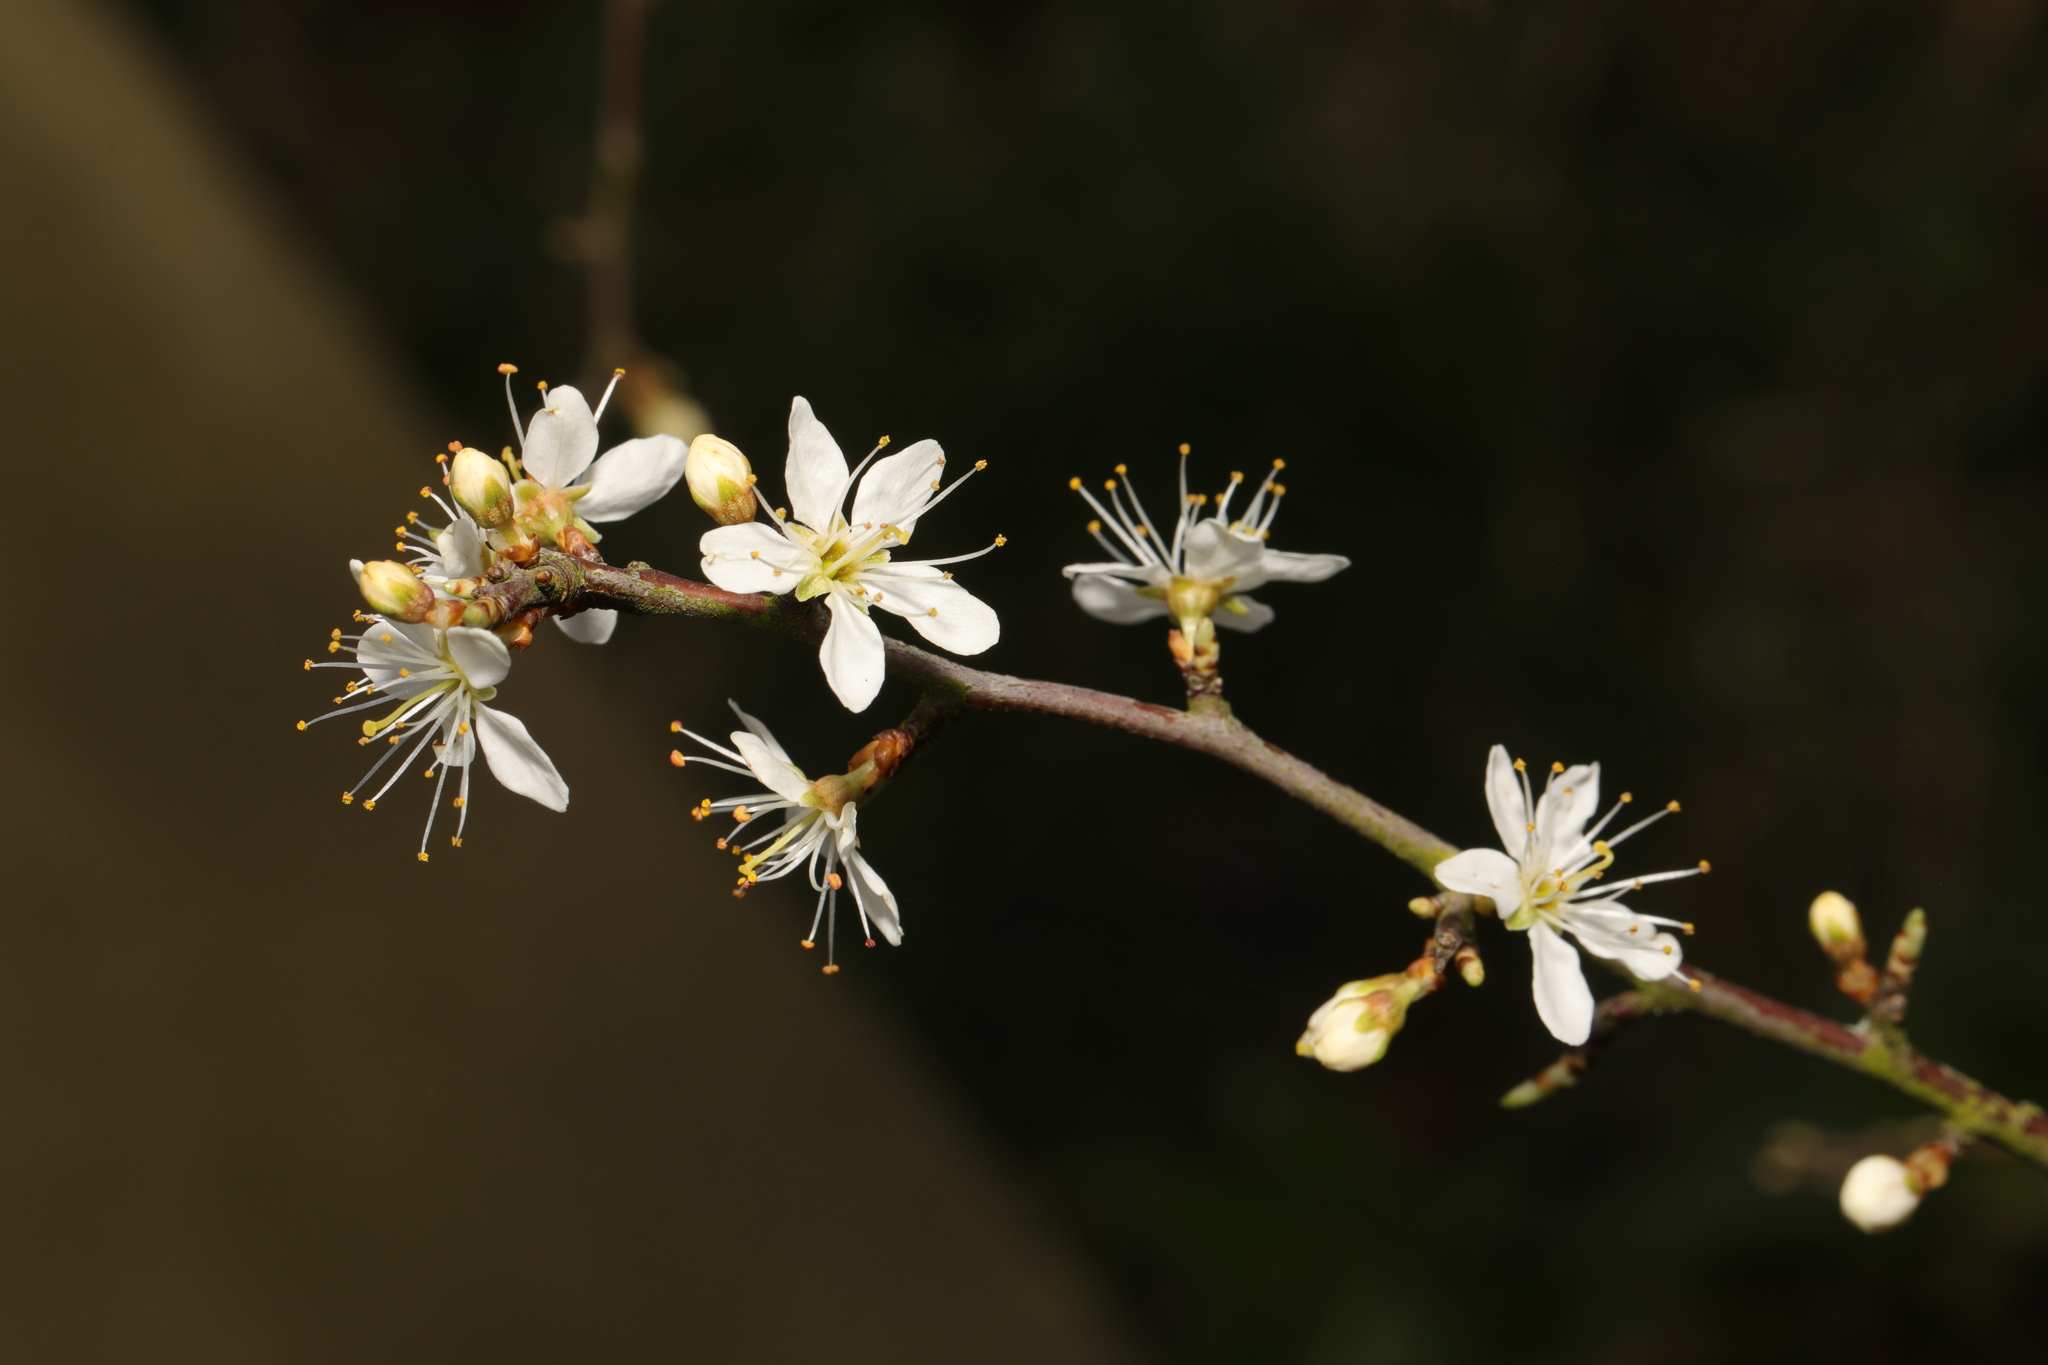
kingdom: Plantae
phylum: Tracheophyta
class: Magnoliopsida
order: Rosales
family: Rosaceae
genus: Prunus
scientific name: Prunus spinosa
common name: Blackthorn
